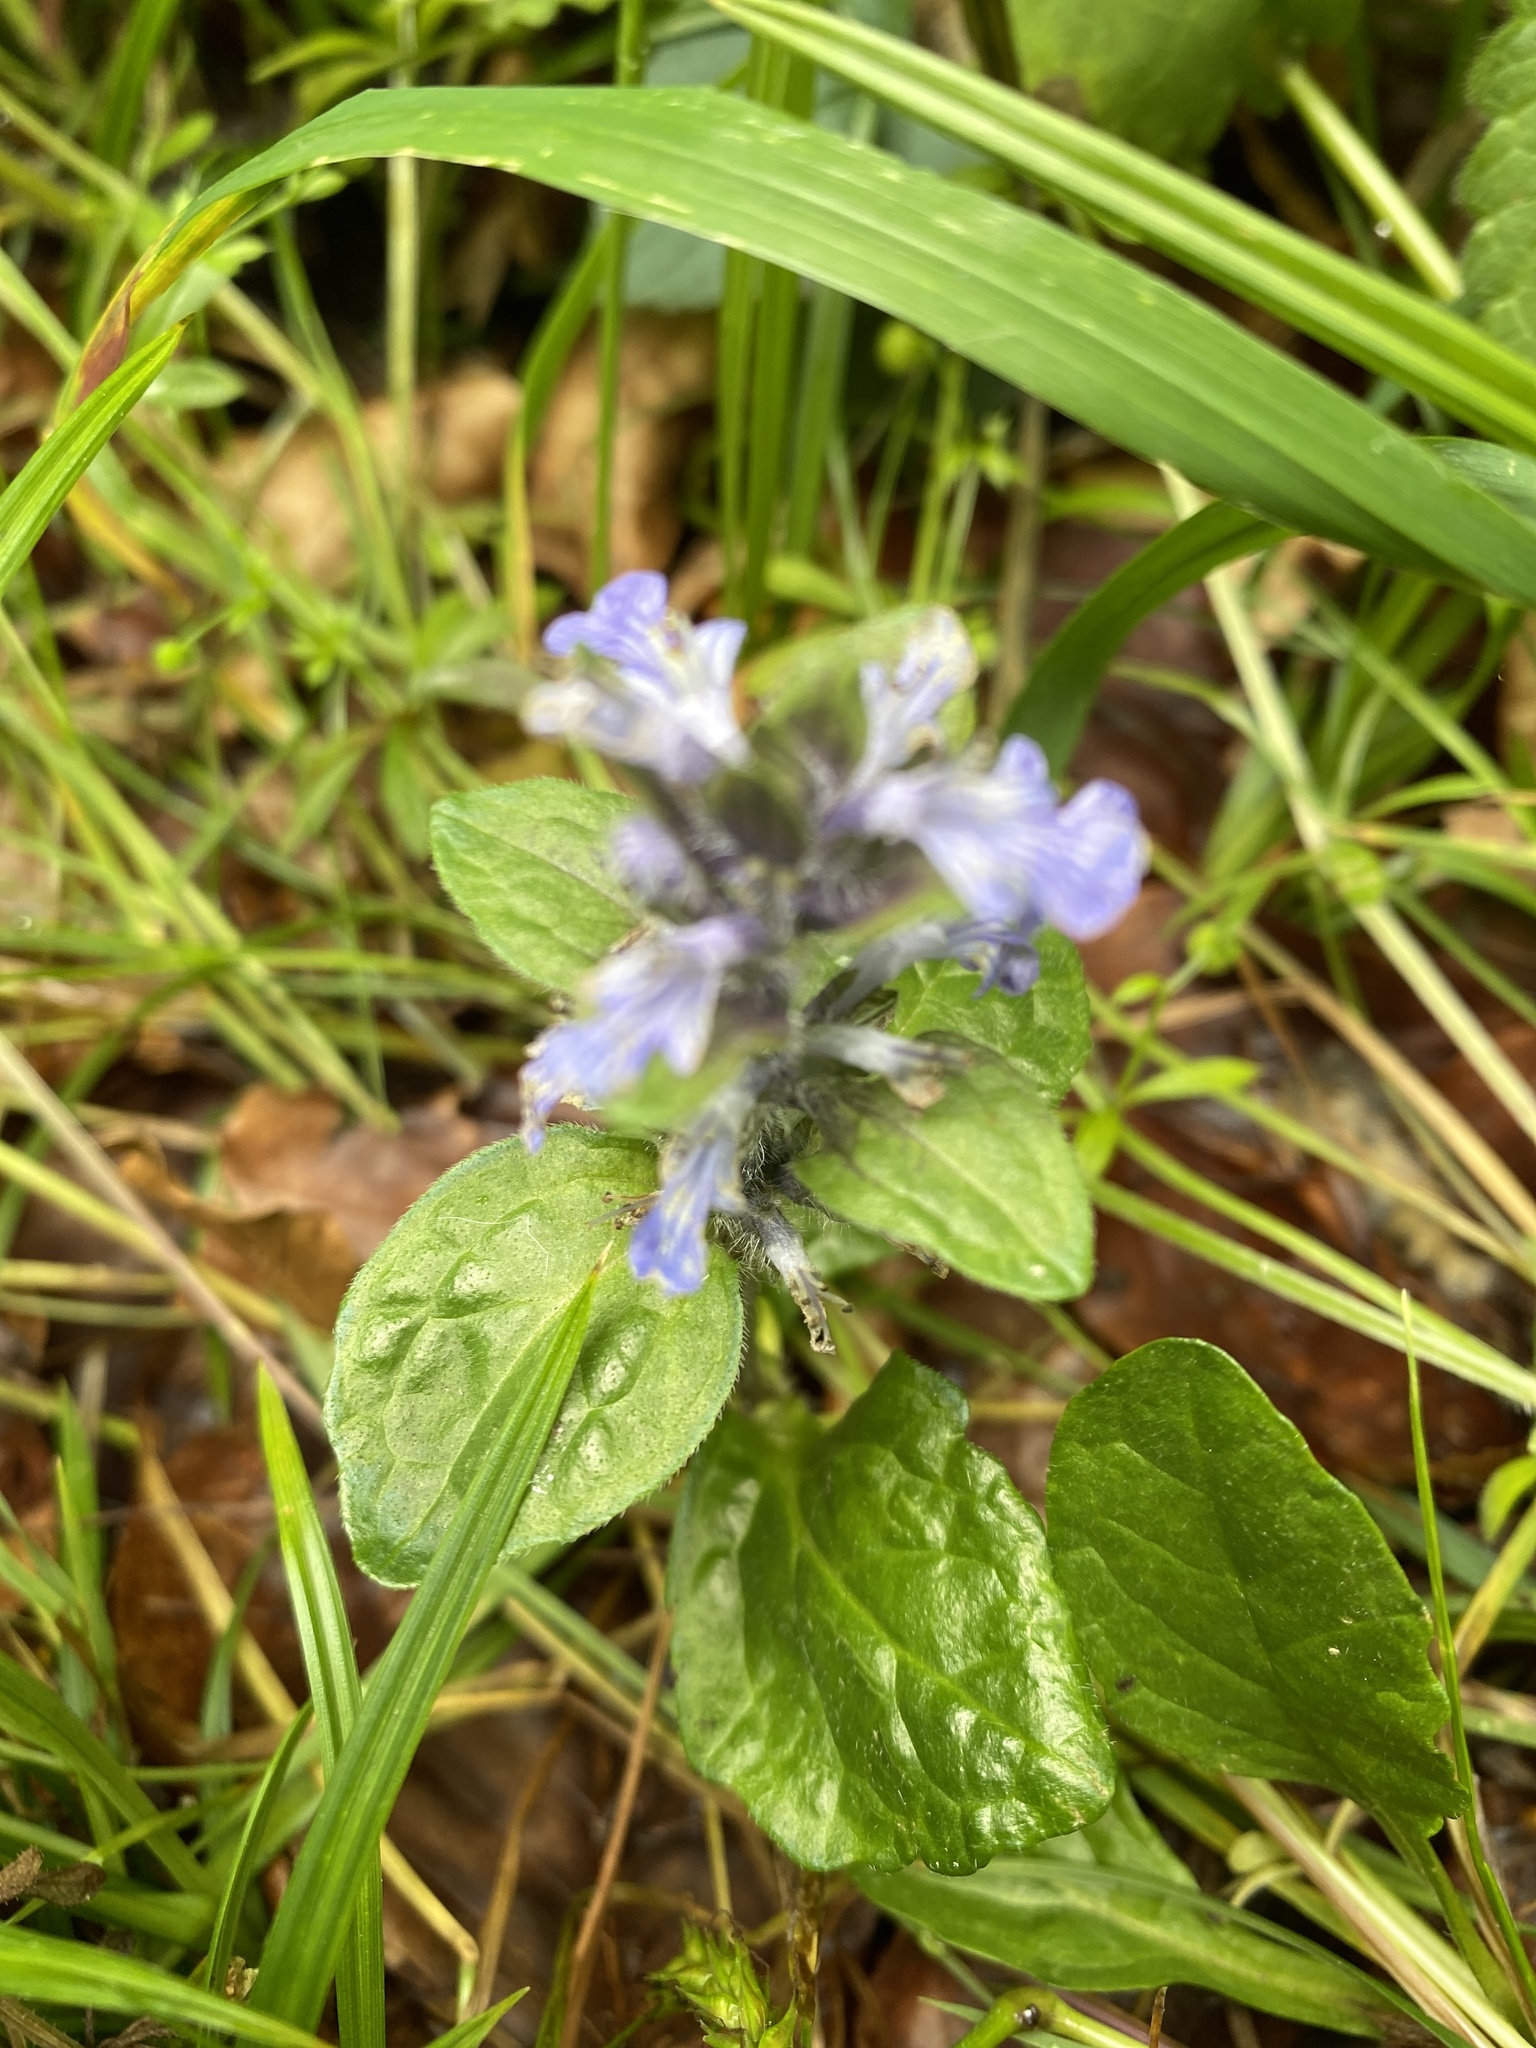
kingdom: Plantae
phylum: Tracheophyta
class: Magnoliopsida
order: Lamiales
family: Lamiaceae
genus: Ajuga
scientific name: Ajuga reptans
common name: Bugle
